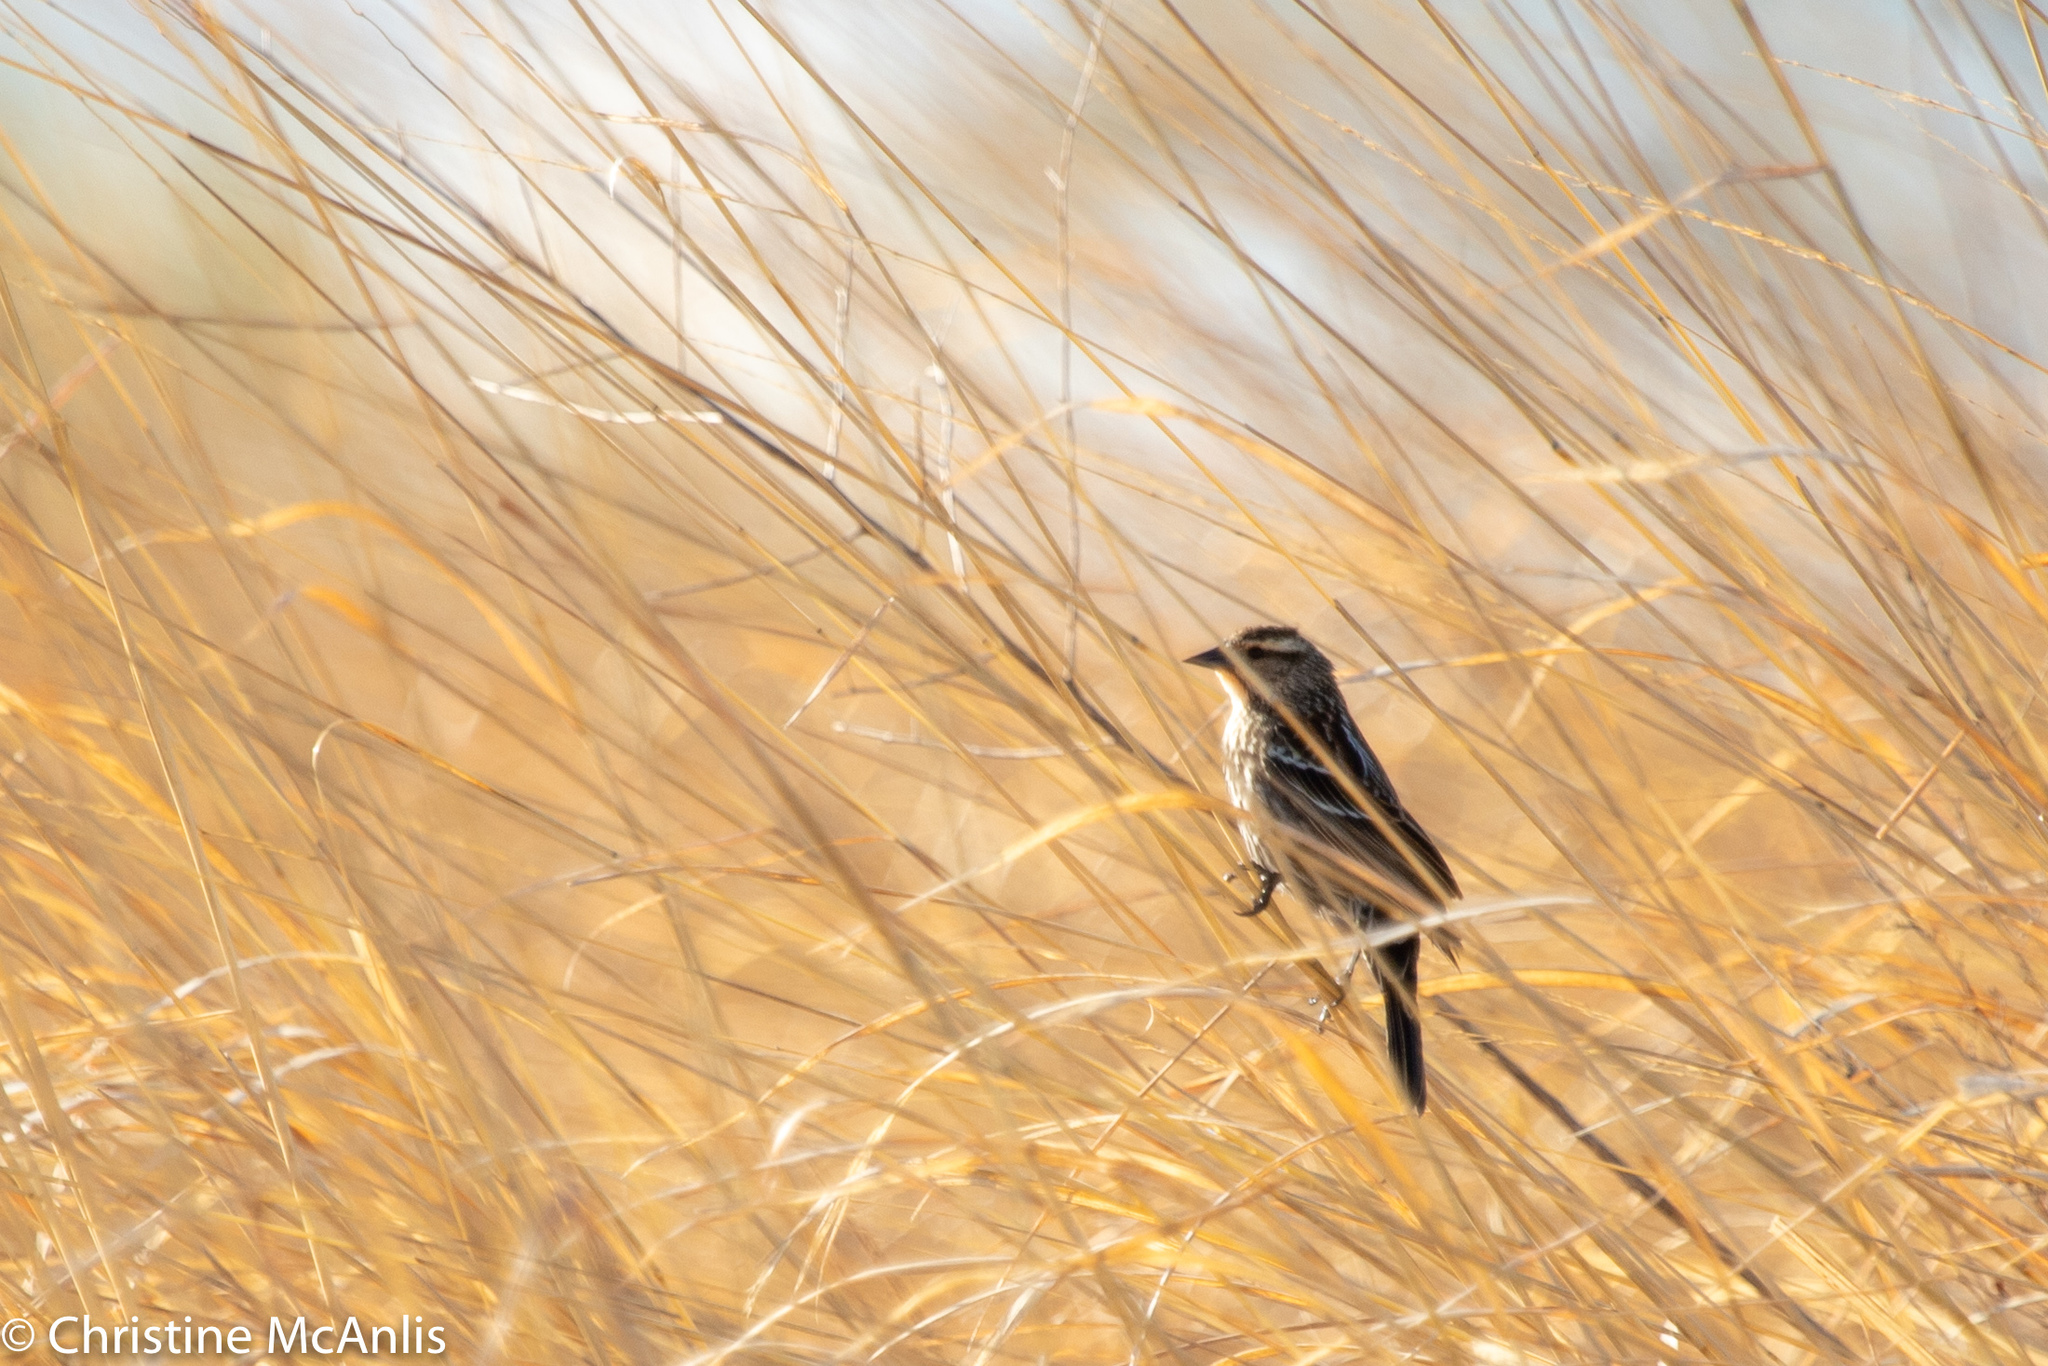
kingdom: Animalia
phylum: Chordata
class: Aves
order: Passeriformes
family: Icteridae
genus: Agelaius
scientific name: Agelaius phoeniceus
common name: Red-winged blackbird
